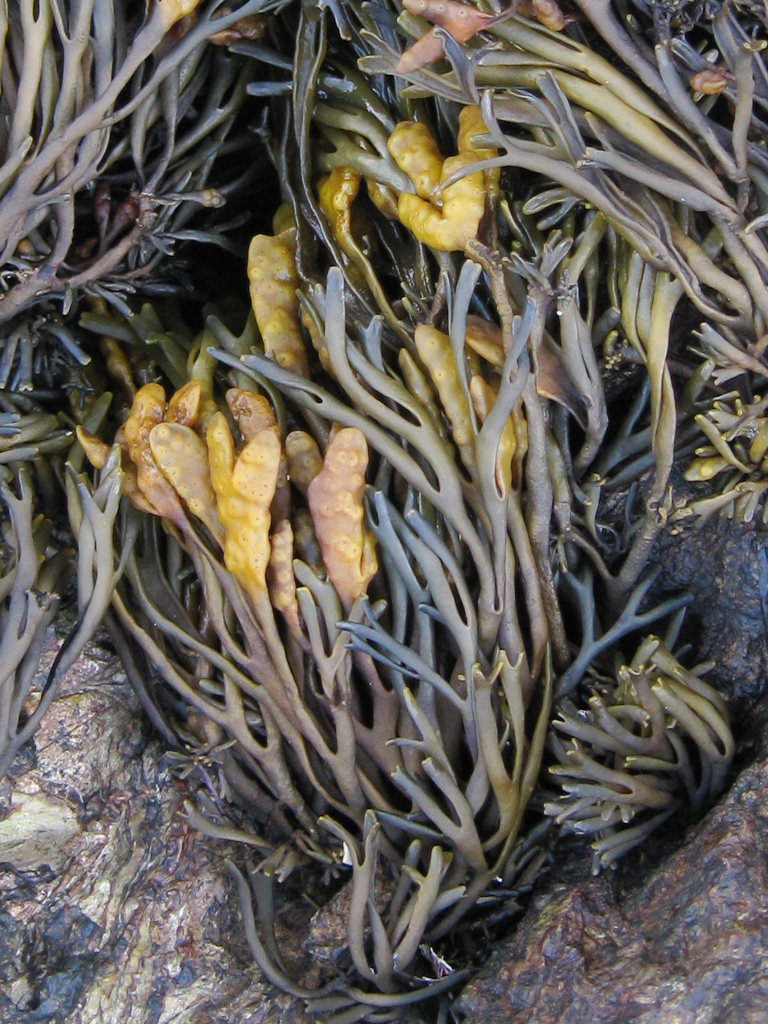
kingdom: Chromista
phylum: Ochrophyta
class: Phaeophyceae
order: Fucales
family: Fucaceae
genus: Pelvetia
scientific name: Pelvetia canaliculata
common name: Channelled wrack
